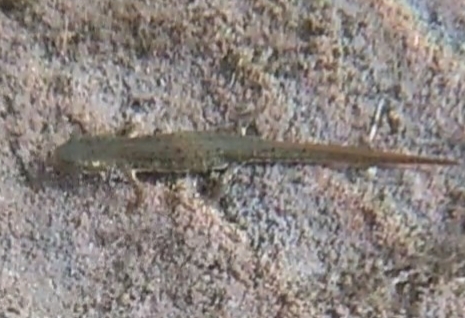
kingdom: Animalia
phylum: Chordata
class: Amphibia
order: Caudata
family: Salamandridae
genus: Lissotriton
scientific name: Lissotriton italicus
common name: Italian newt
